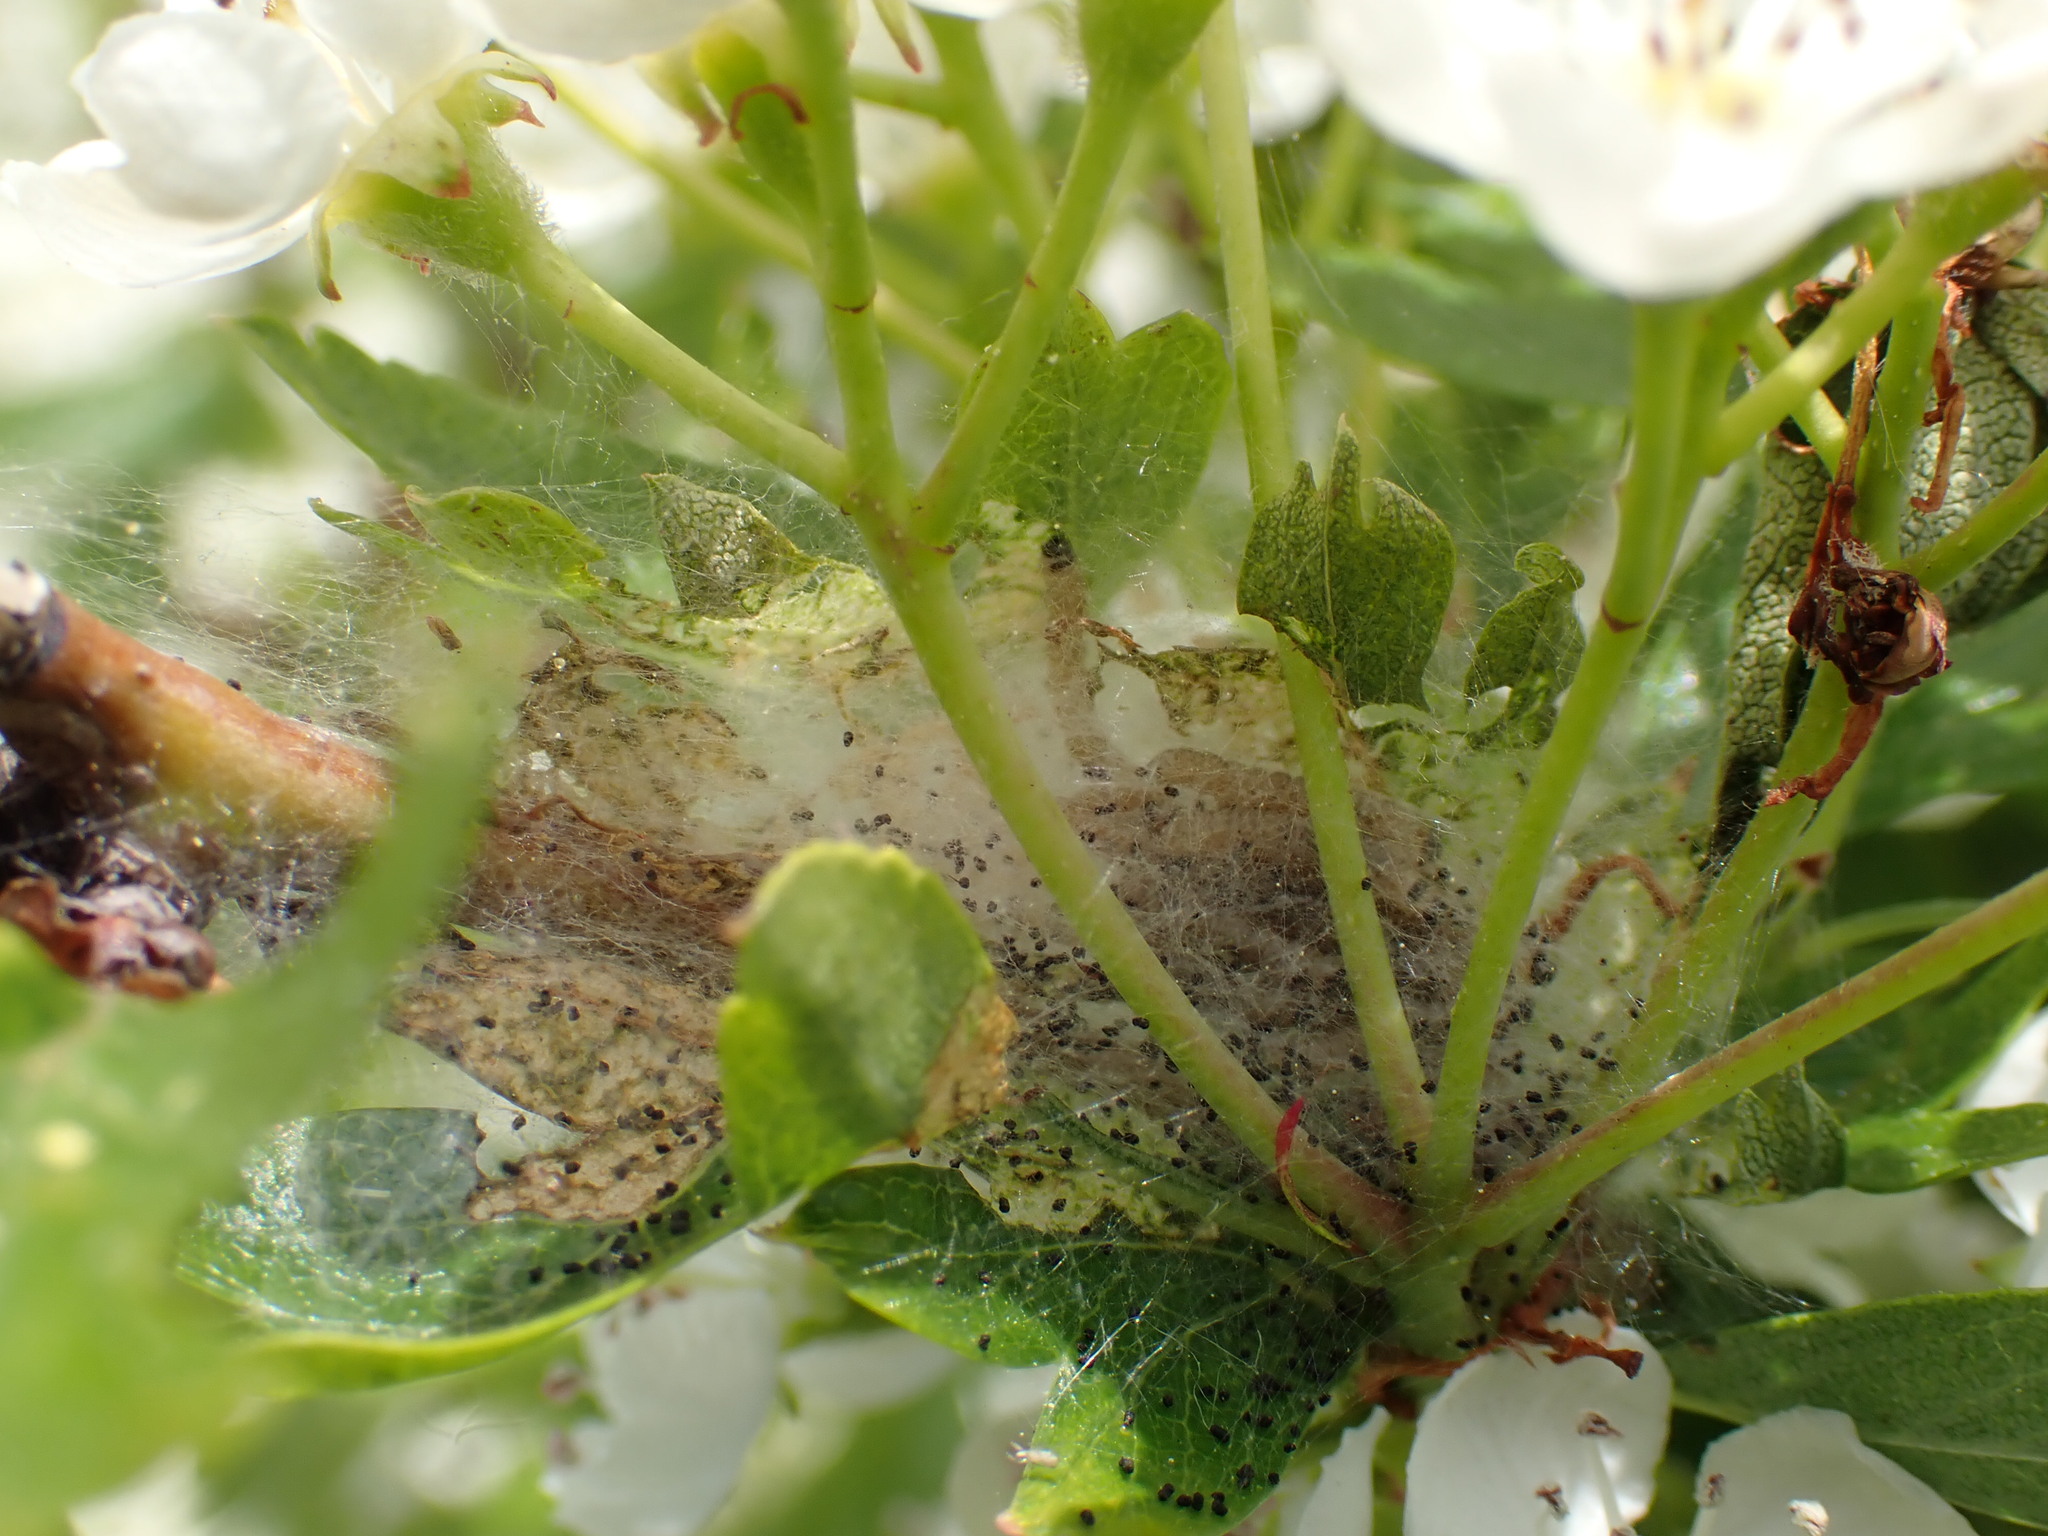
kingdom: Animalia
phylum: Arthropoda
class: Insecta
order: Lepidoptera
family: Yponomeutidae
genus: Yponomeuta
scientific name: Yponomeuta padella
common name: Orchard ermine
